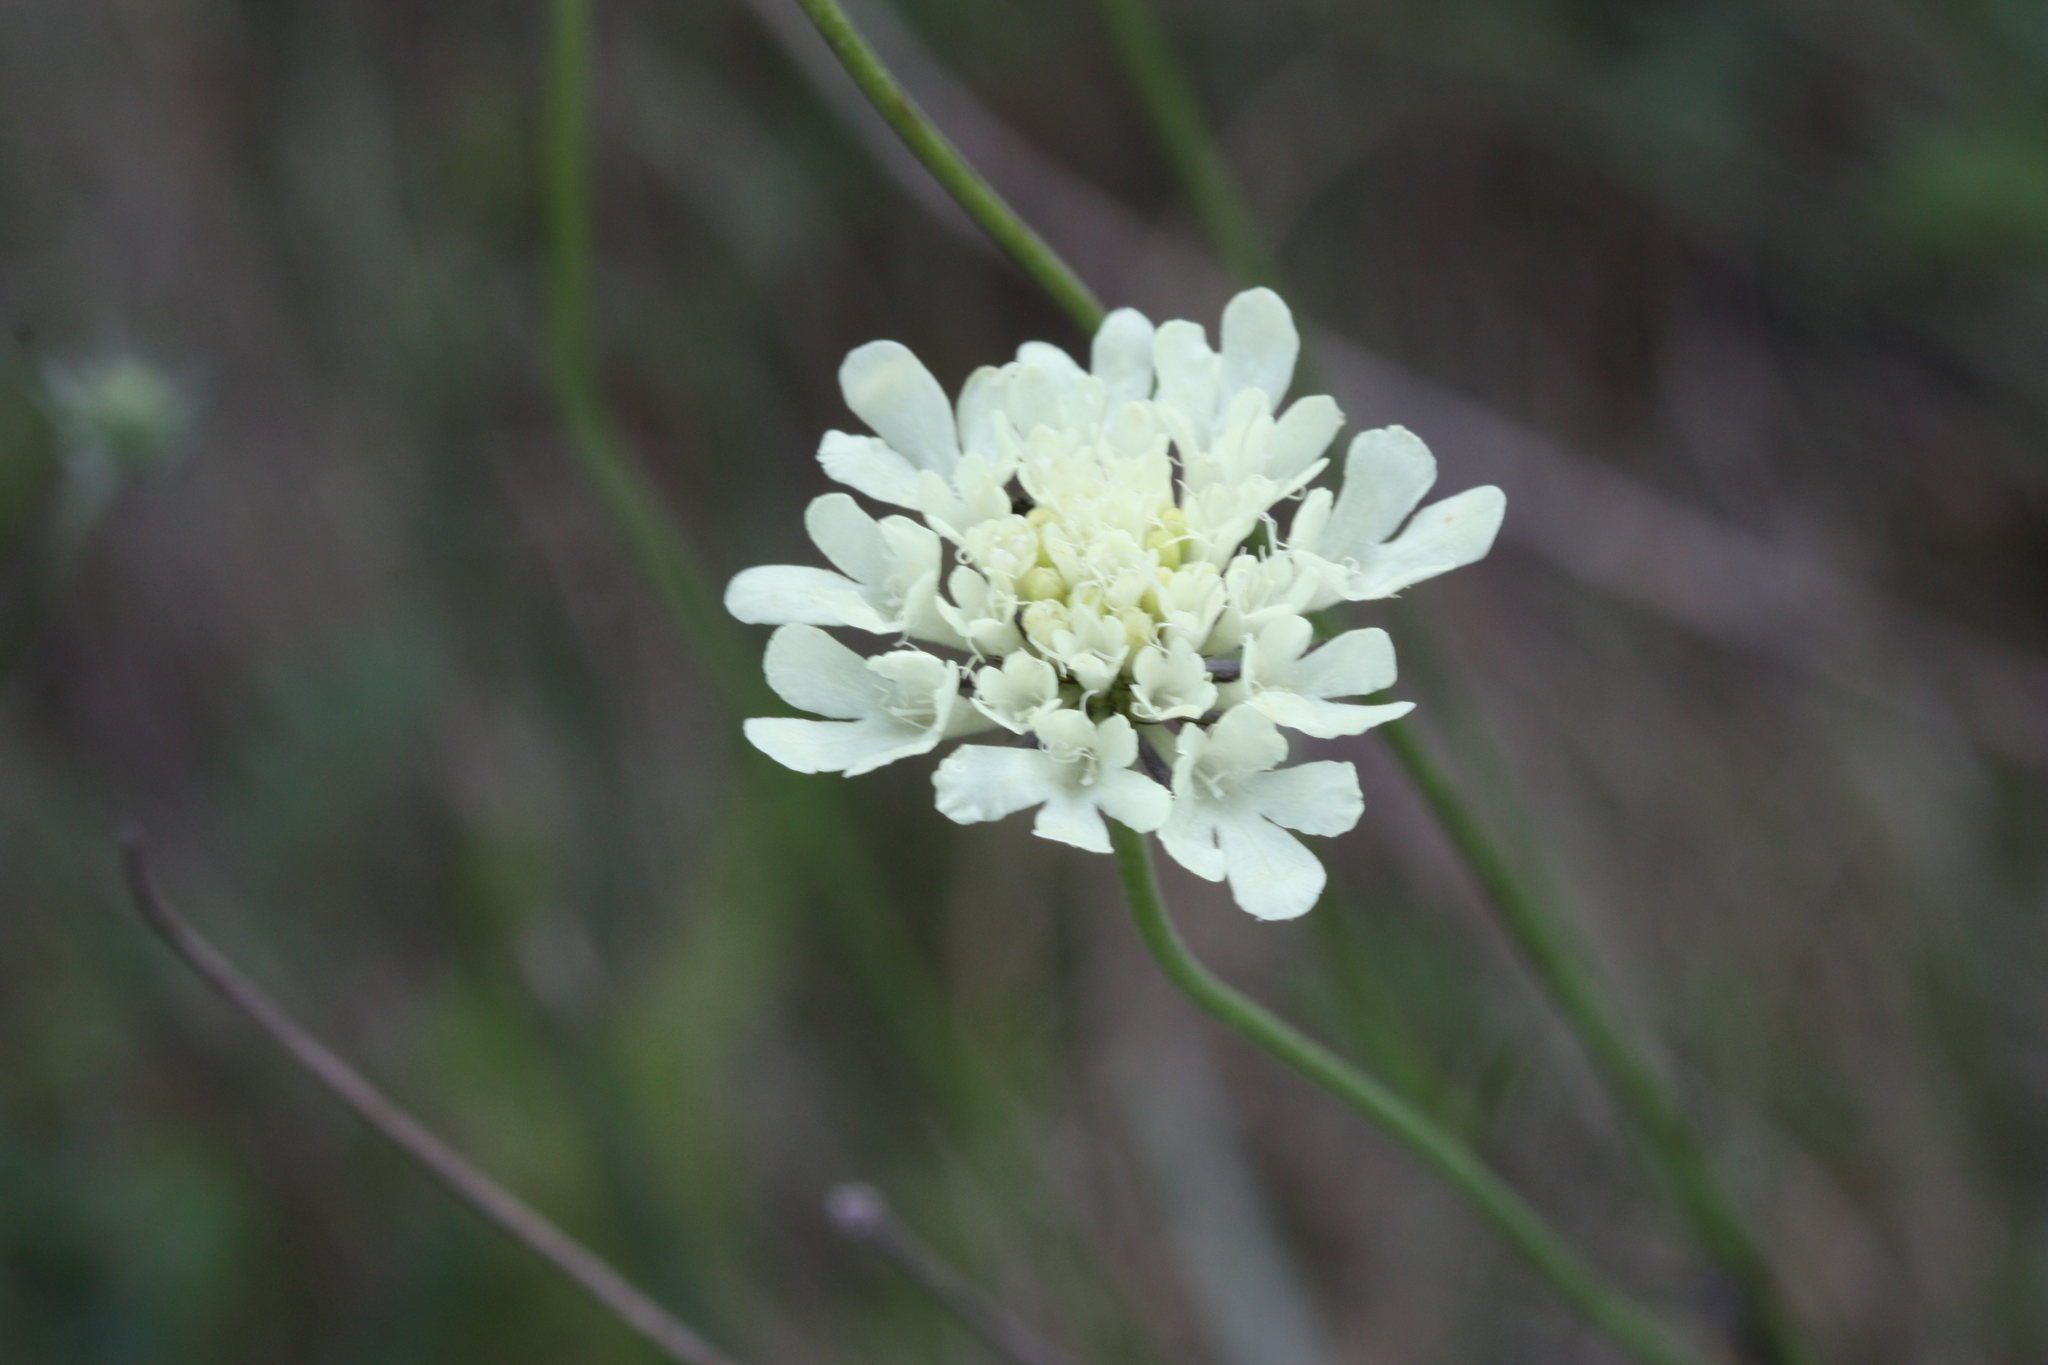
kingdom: Plantae
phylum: Tracheophyta
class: Magnoliopsida
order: Dipsacales
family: Caprifoliaceae
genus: Scabiosa
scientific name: Scabiosa ochroleuca
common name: Cream pincushions
